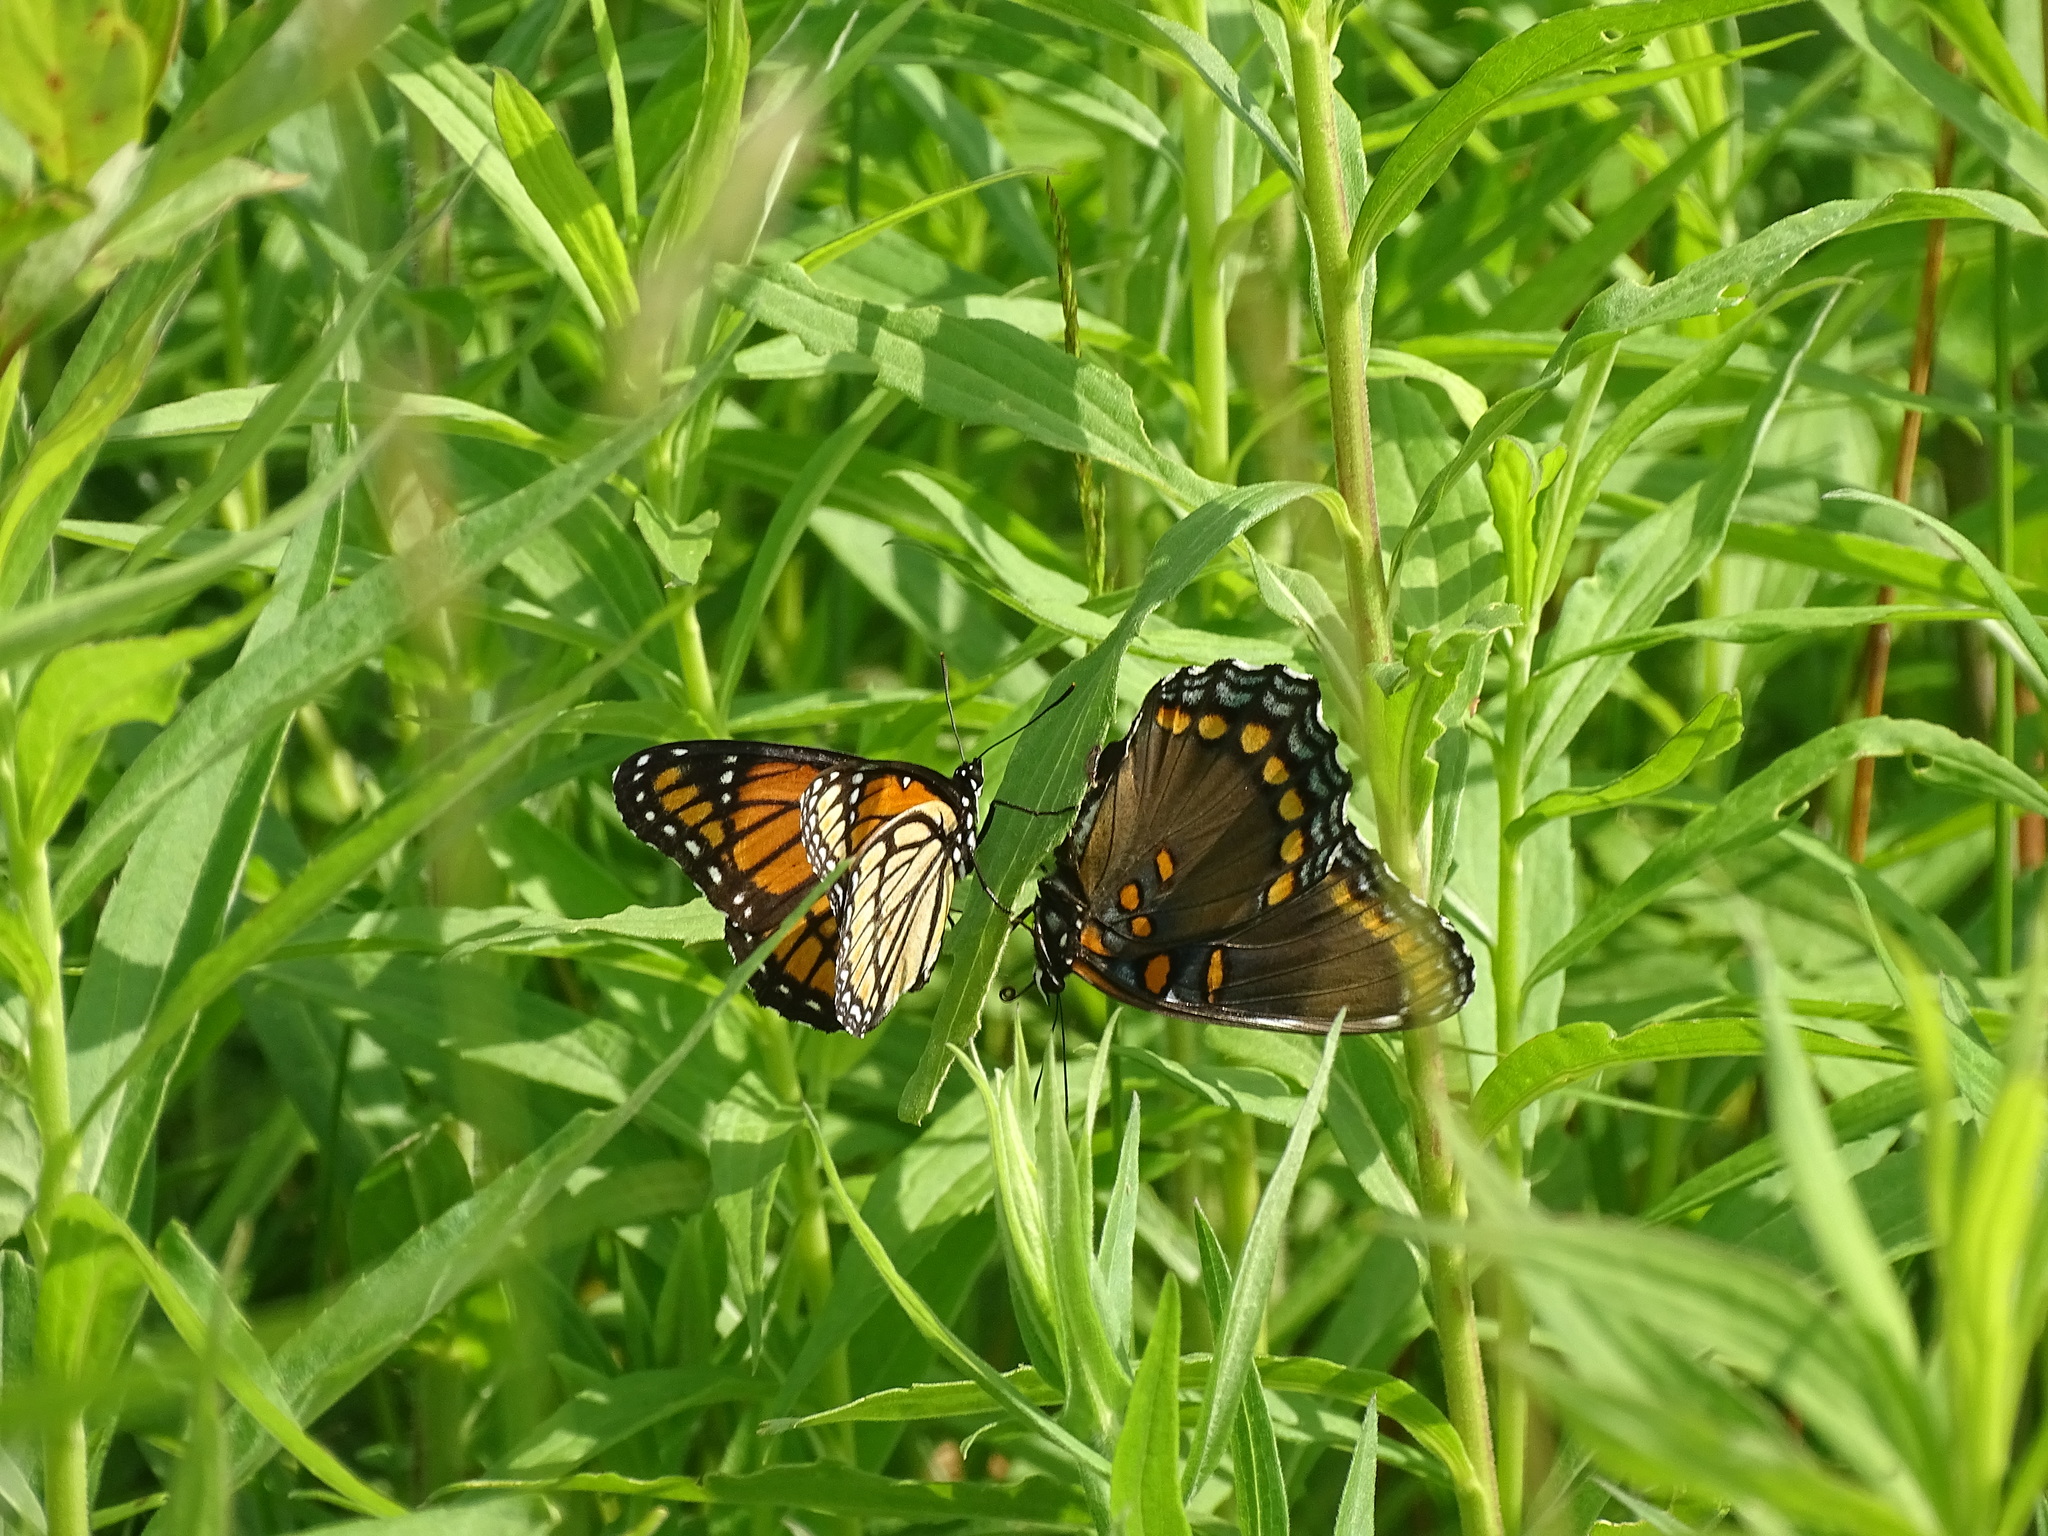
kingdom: Animalia
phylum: Arthropoda
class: Insecta
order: Lepidoptera
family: Nymphalidae
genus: Limenitis
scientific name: Limenitis archippus
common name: Viceroy
